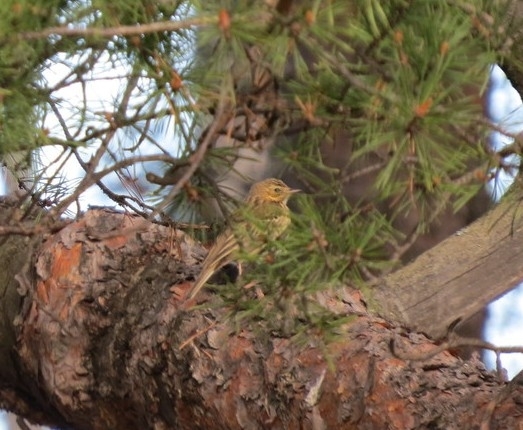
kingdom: Animalia
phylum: Chordata
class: Aves
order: Passeriformes
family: Motacillidae
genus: Anthus
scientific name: Anthus trivialis
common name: Tree pipit
